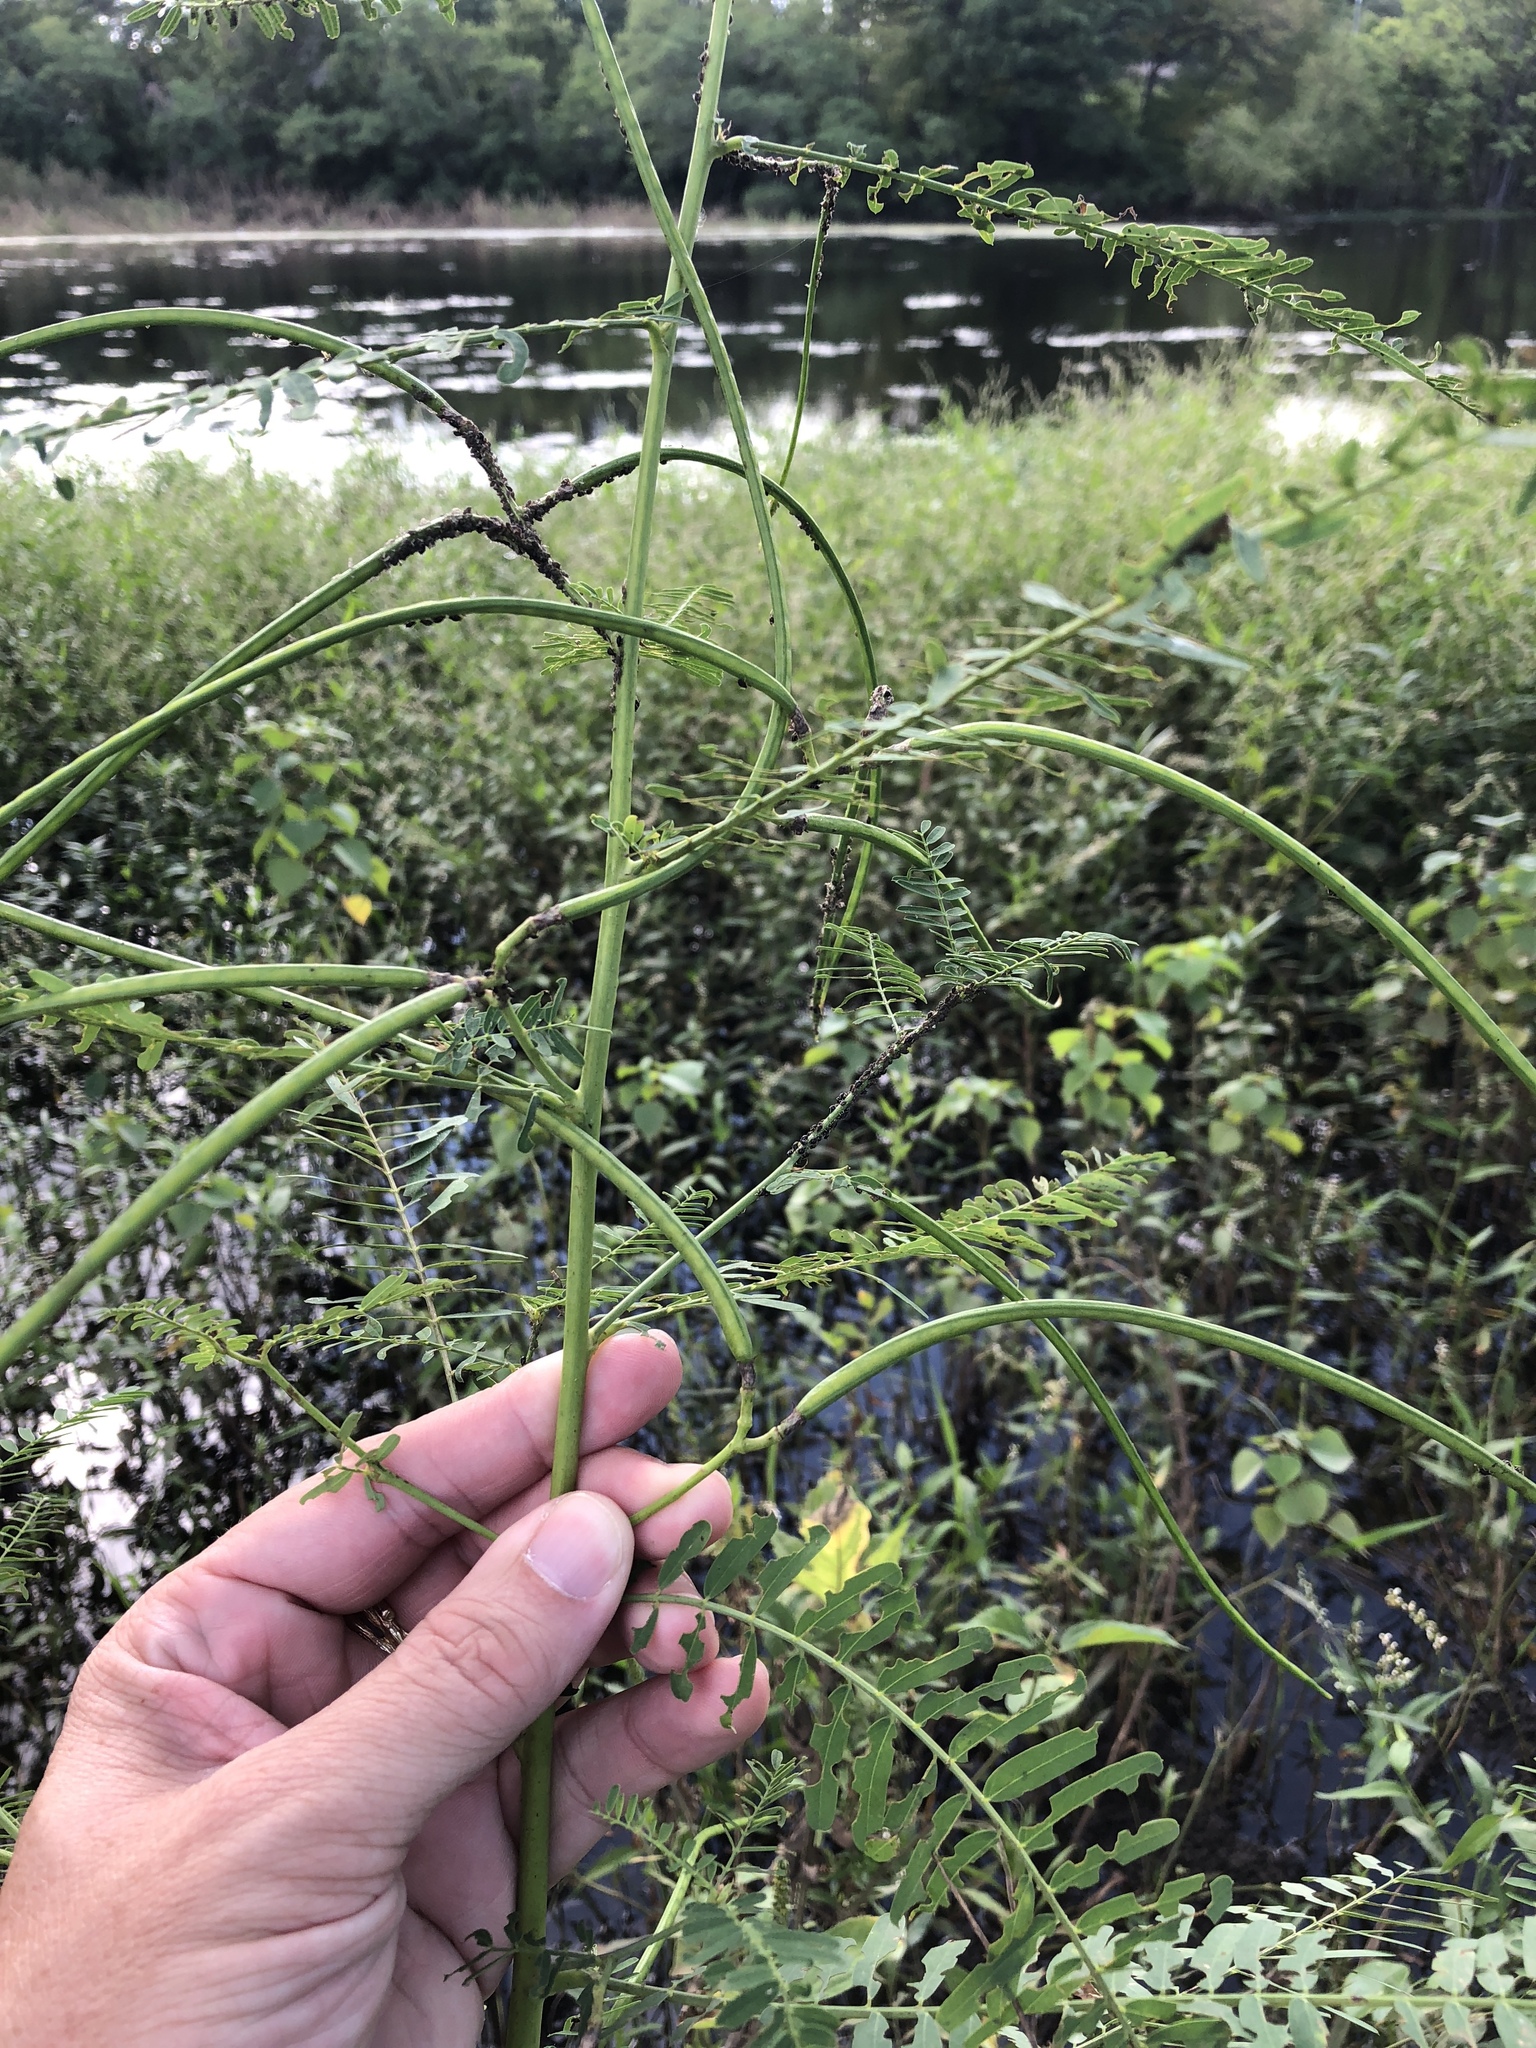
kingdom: Plantae
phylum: Tracheophyta
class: Magnoliopsida
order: Fabales
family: Fabaceae
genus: Sesbania
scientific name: Sesbania herbacea
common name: Bigpod sesbania
